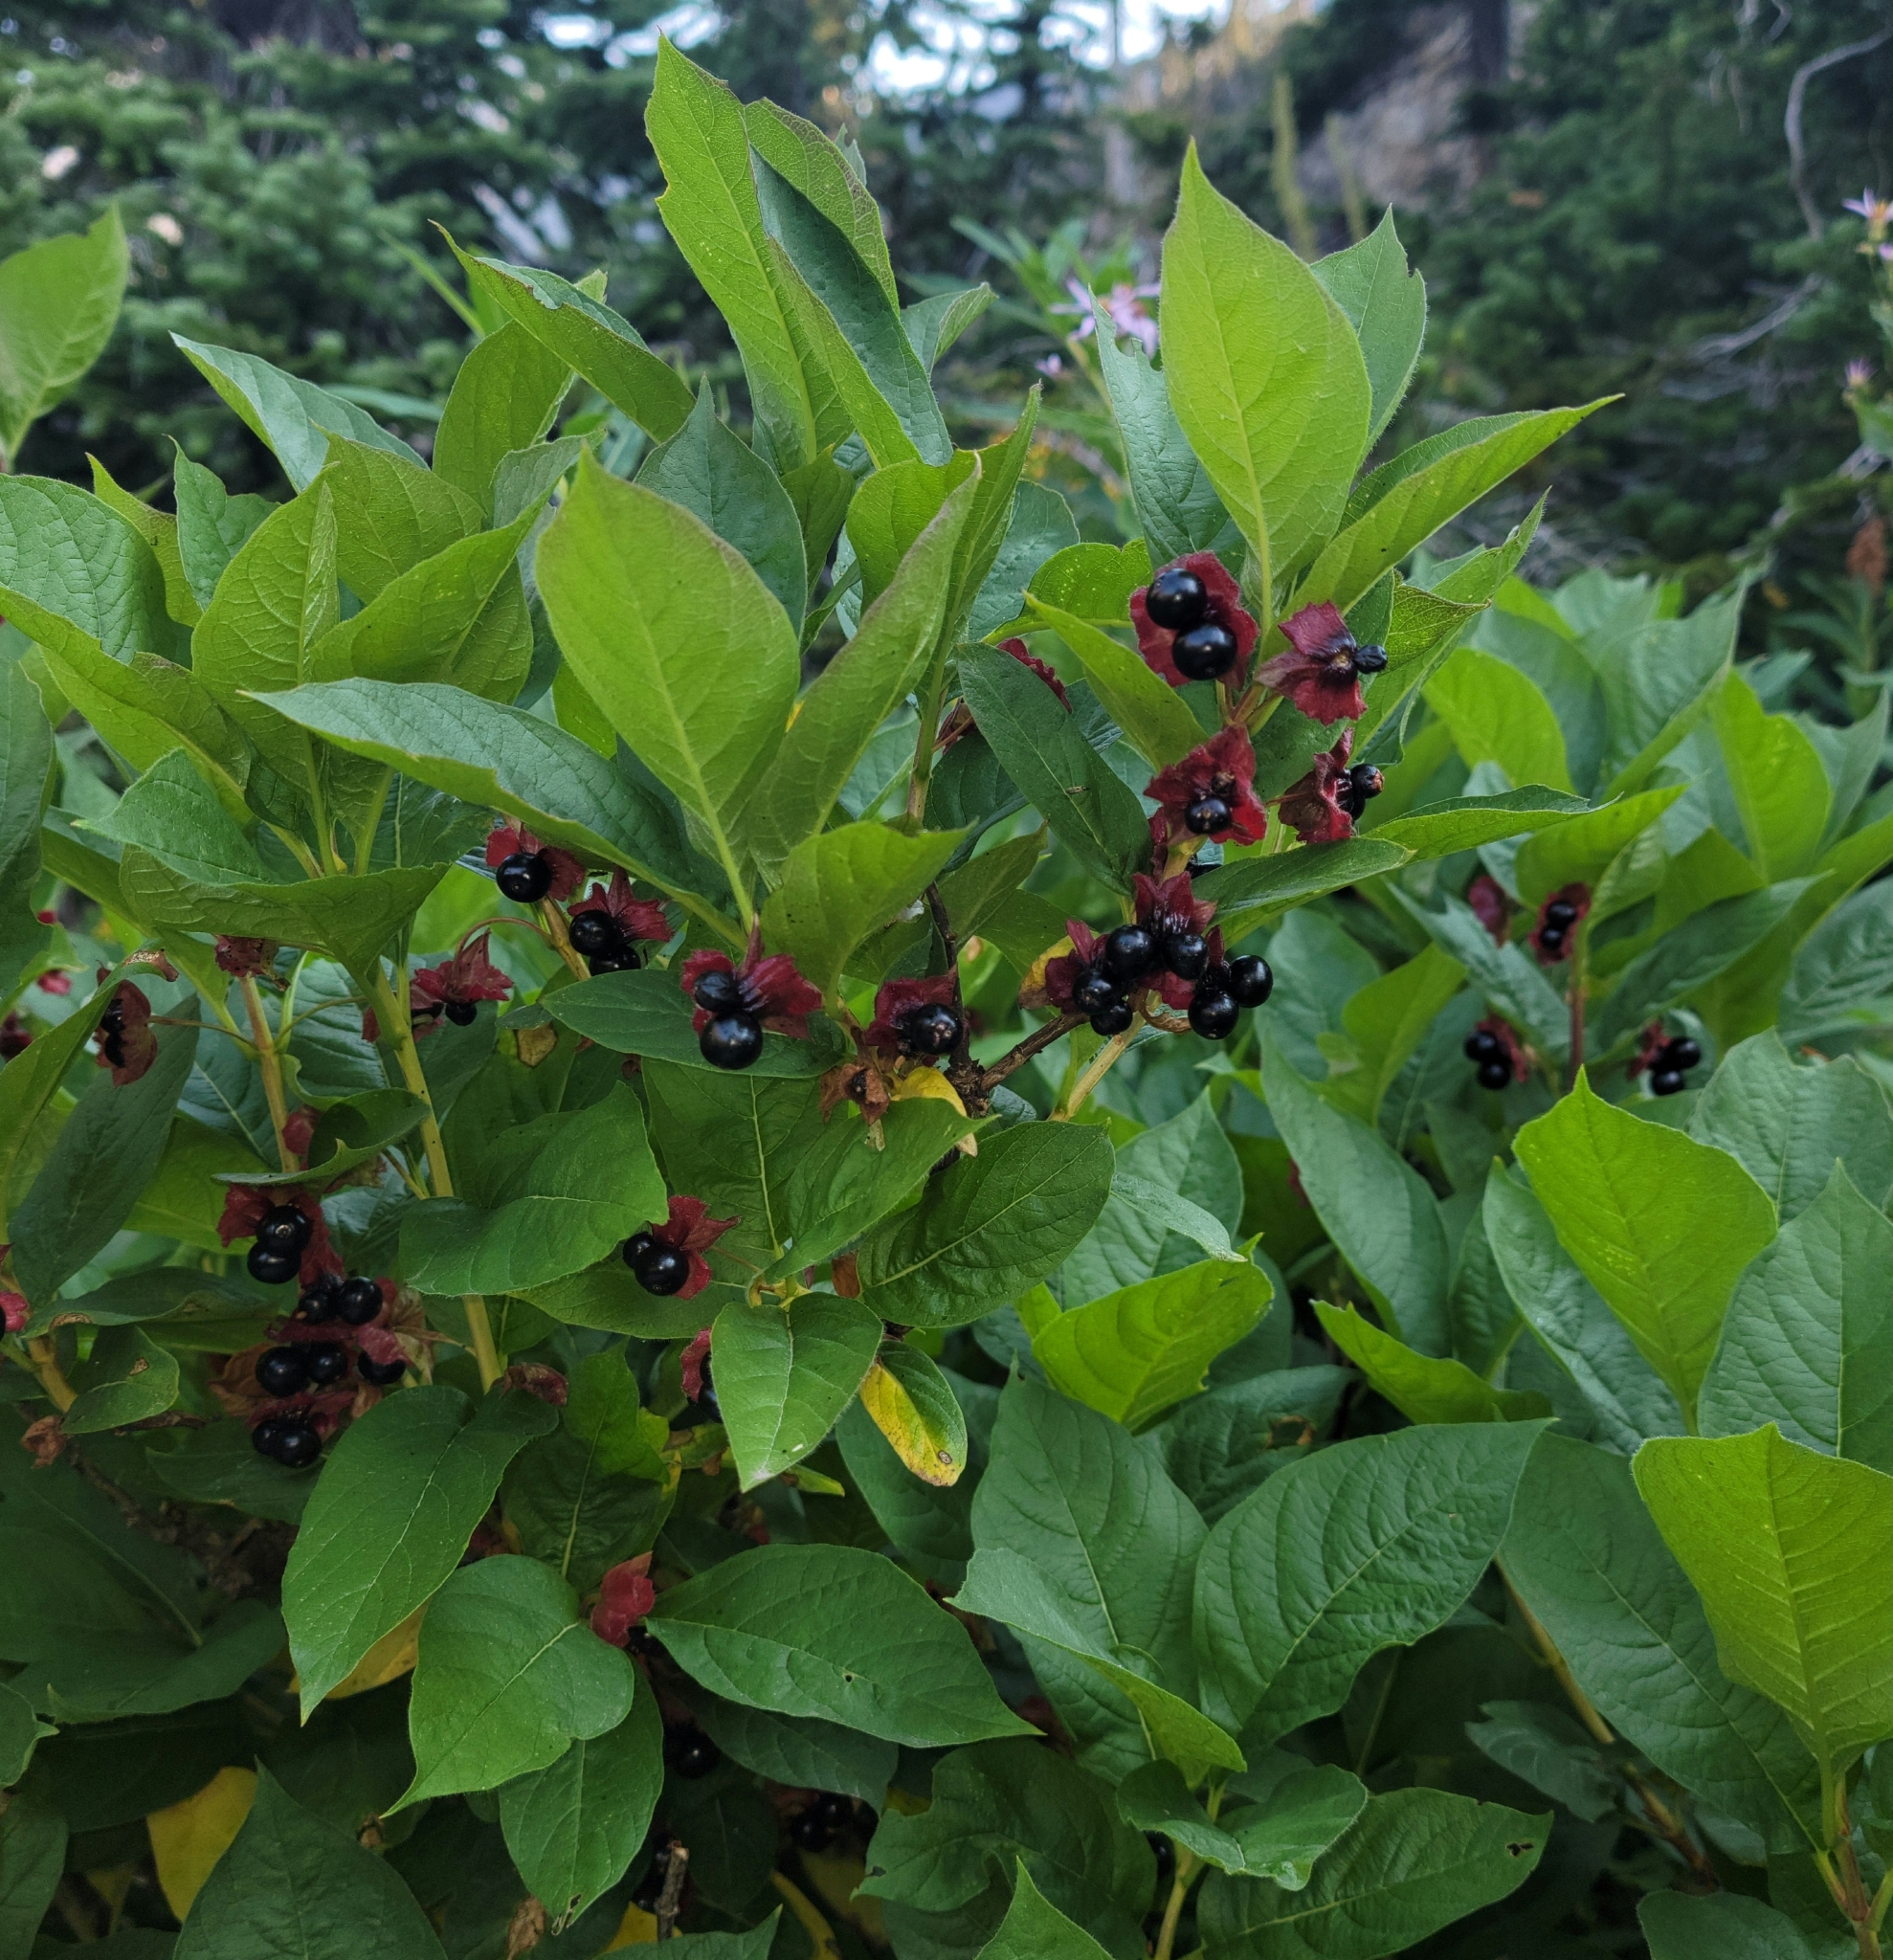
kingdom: Plantae
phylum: Tracheophyta
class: Magnoliopsida
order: Dipsacales
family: Caprifoliaceae
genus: Lonicera
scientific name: Lonicera involucrata
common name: Californian honeysuckle
